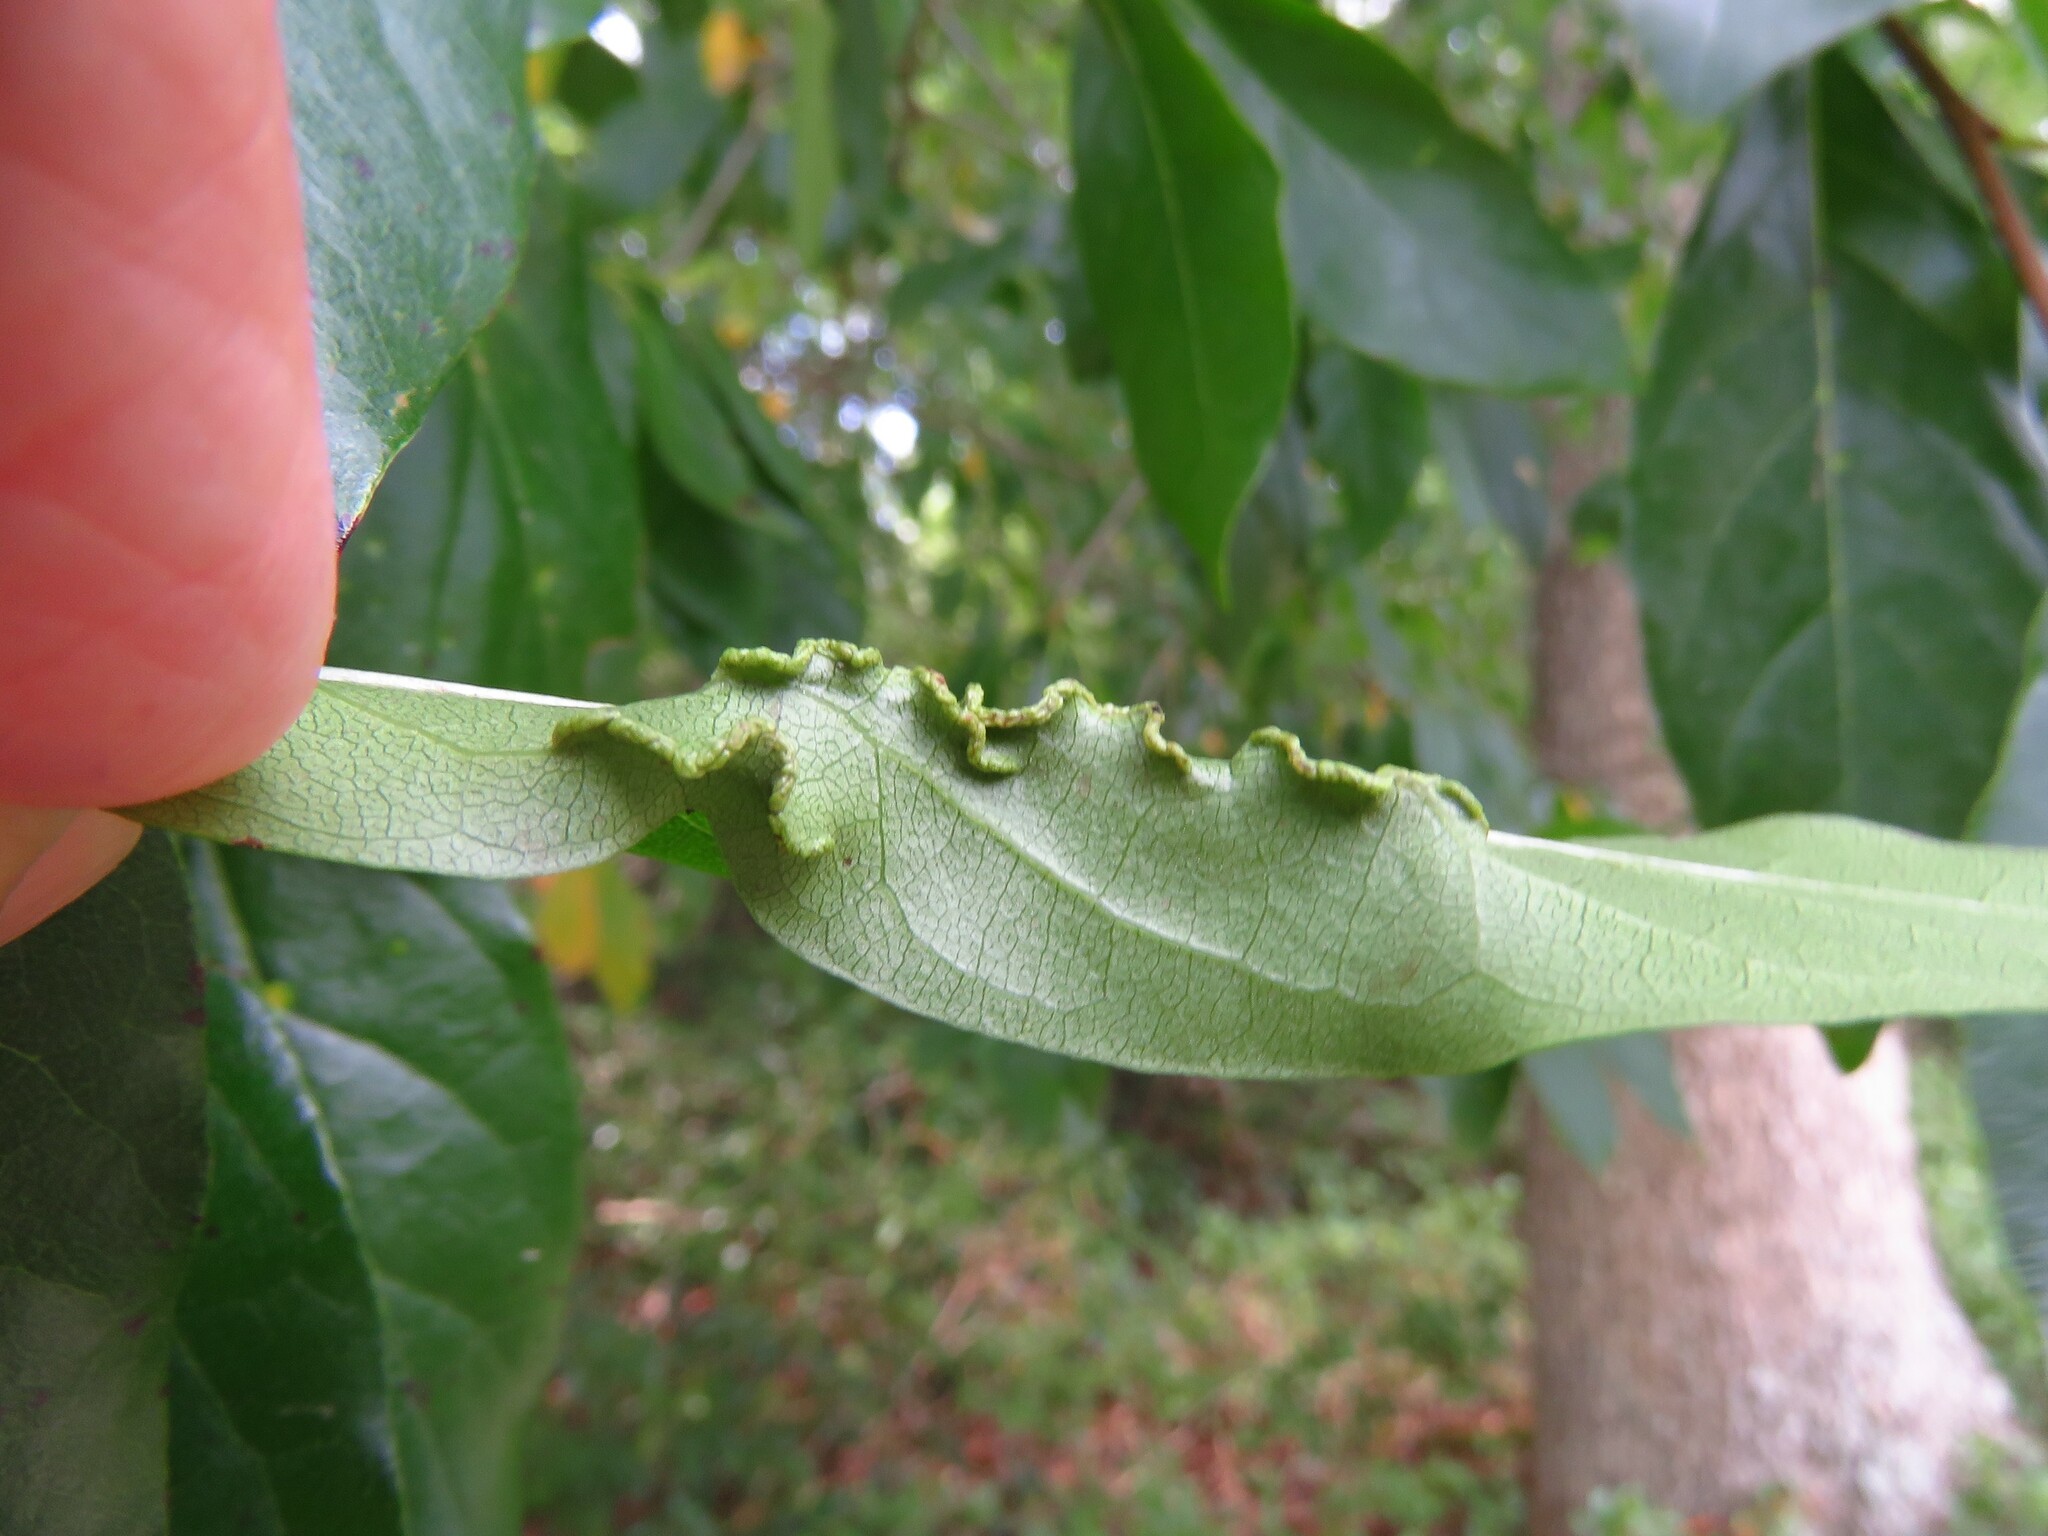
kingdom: Animalia
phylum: Arthropoda
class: Arachnida
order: Trombidiformes
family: Eriophyidae
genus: Aceria
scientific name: Aceria
